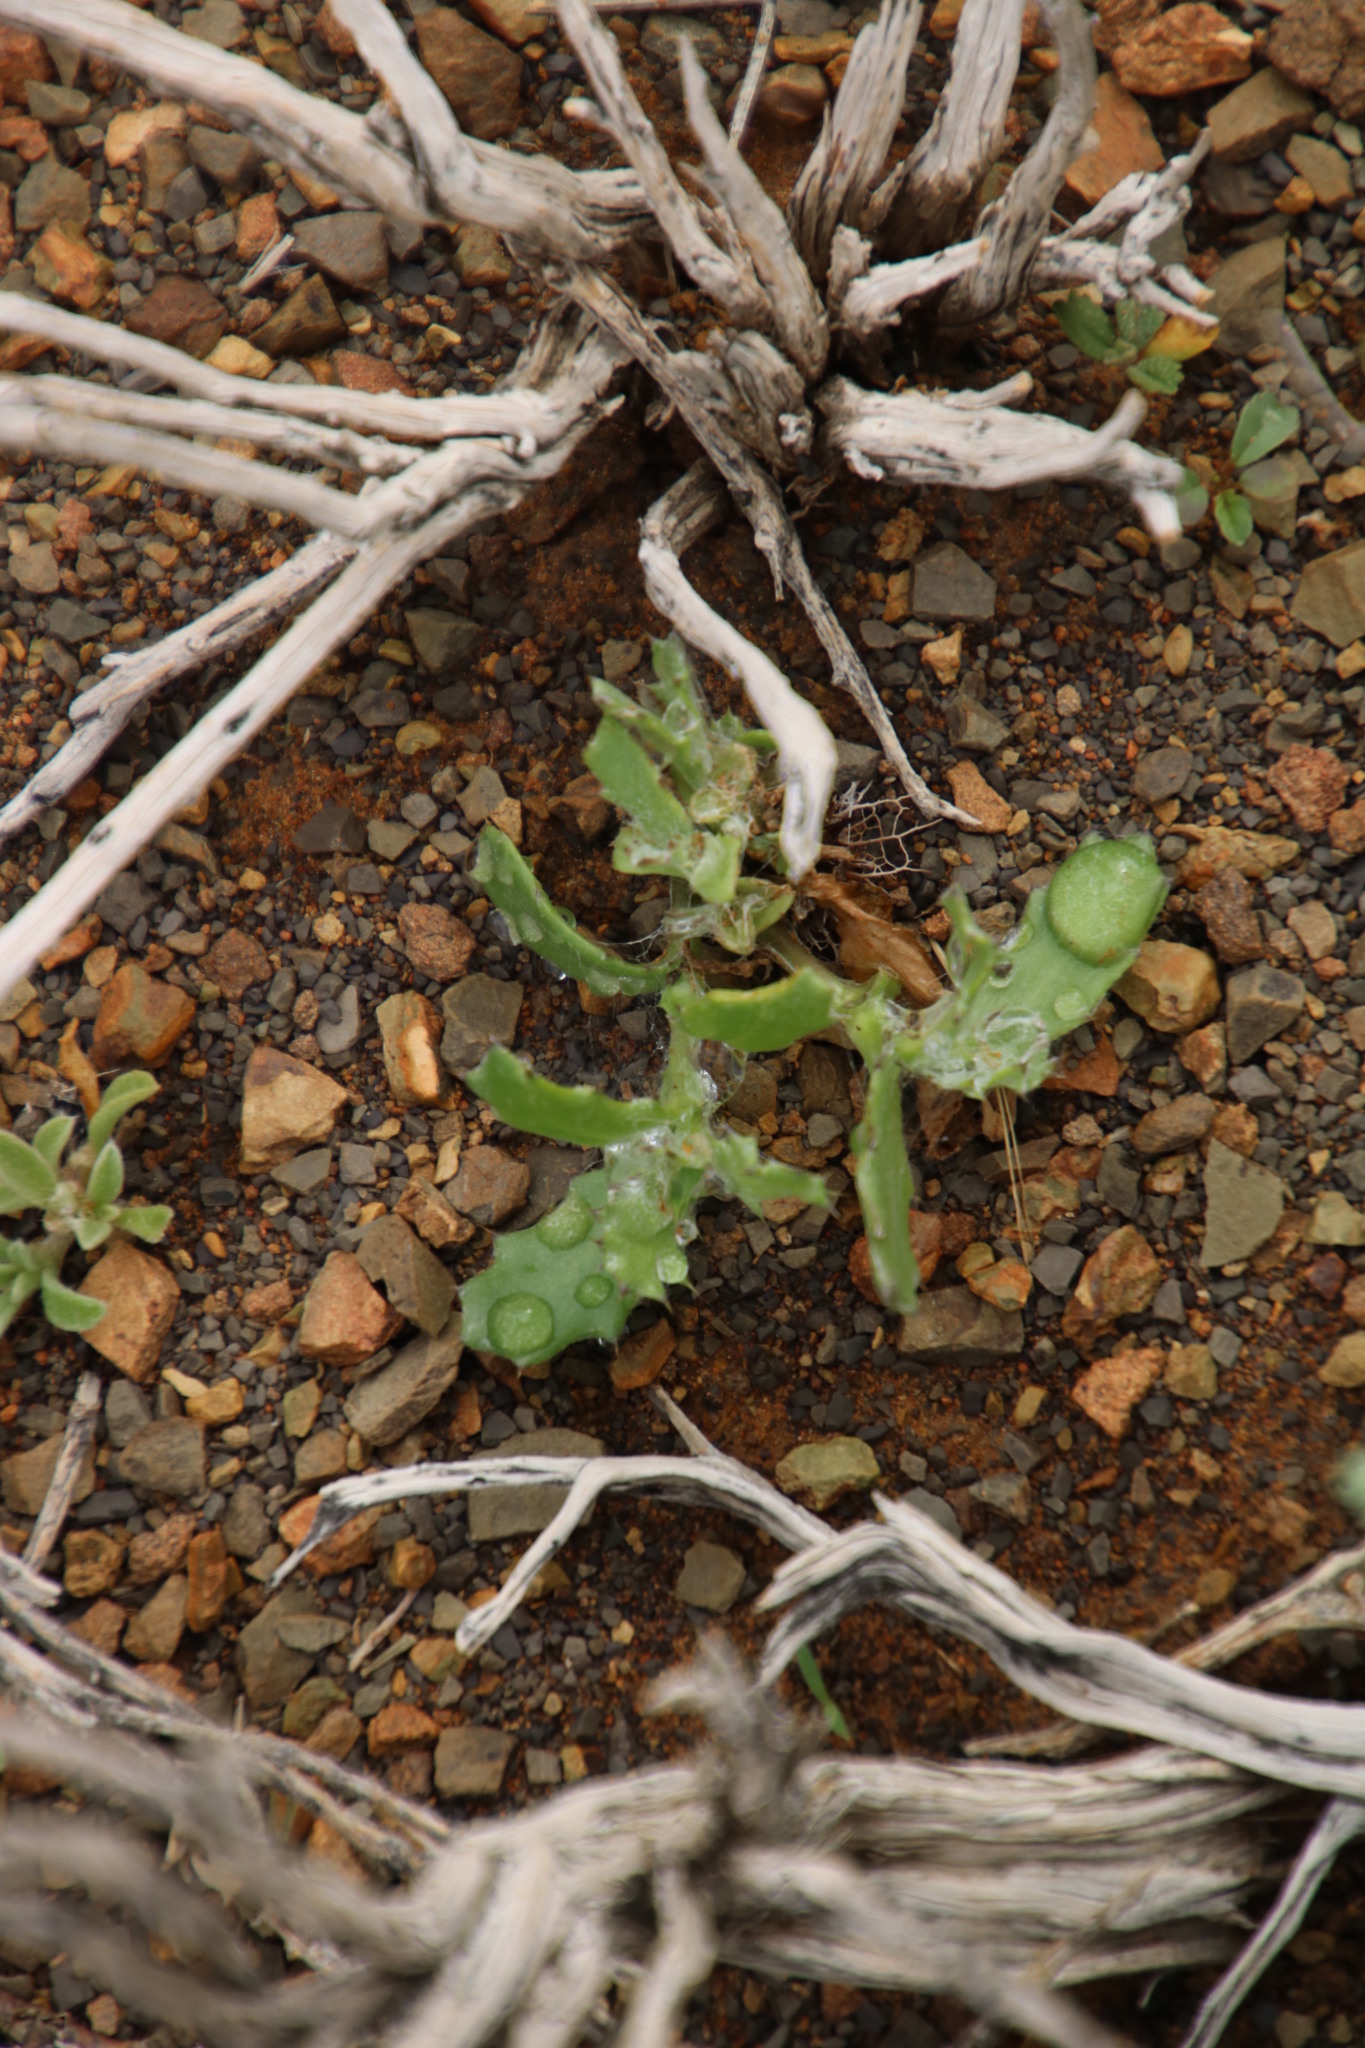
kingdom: Plantae
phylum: Tracheophyta
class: Magnoliopsida
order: Asterales
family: Asteraceae
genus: Cuspidia
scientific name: Cuspidia cernua
